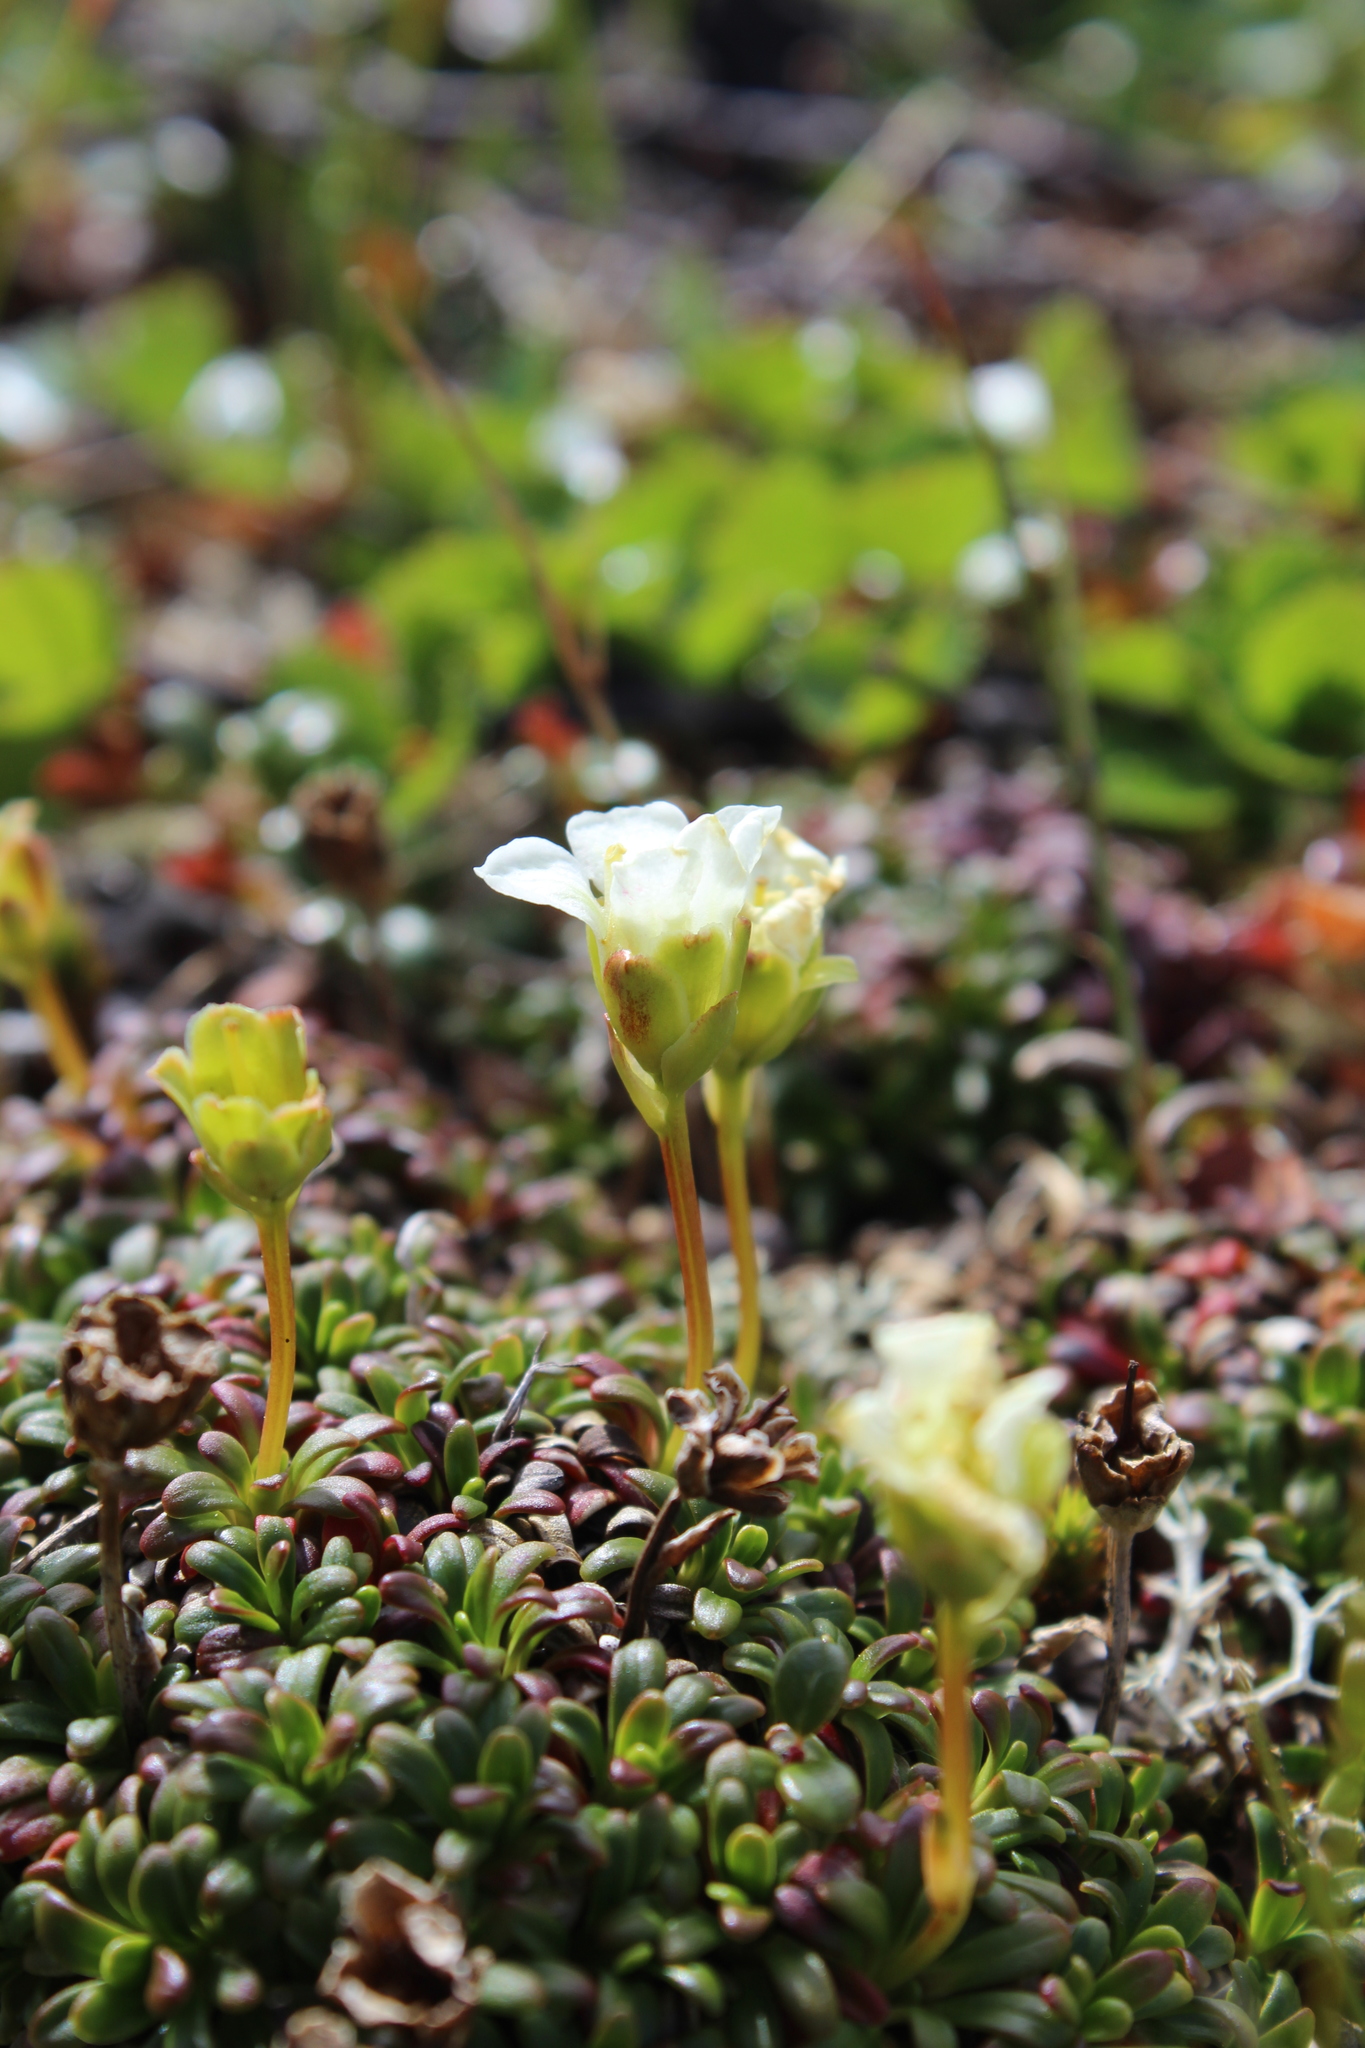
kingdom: Plantae
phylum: Tracheophyta
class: Magnoliopsida
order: Ericales
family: Diapensiaceae
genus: Diapensia
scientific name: Diapensia lapponica
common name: Diapensia
